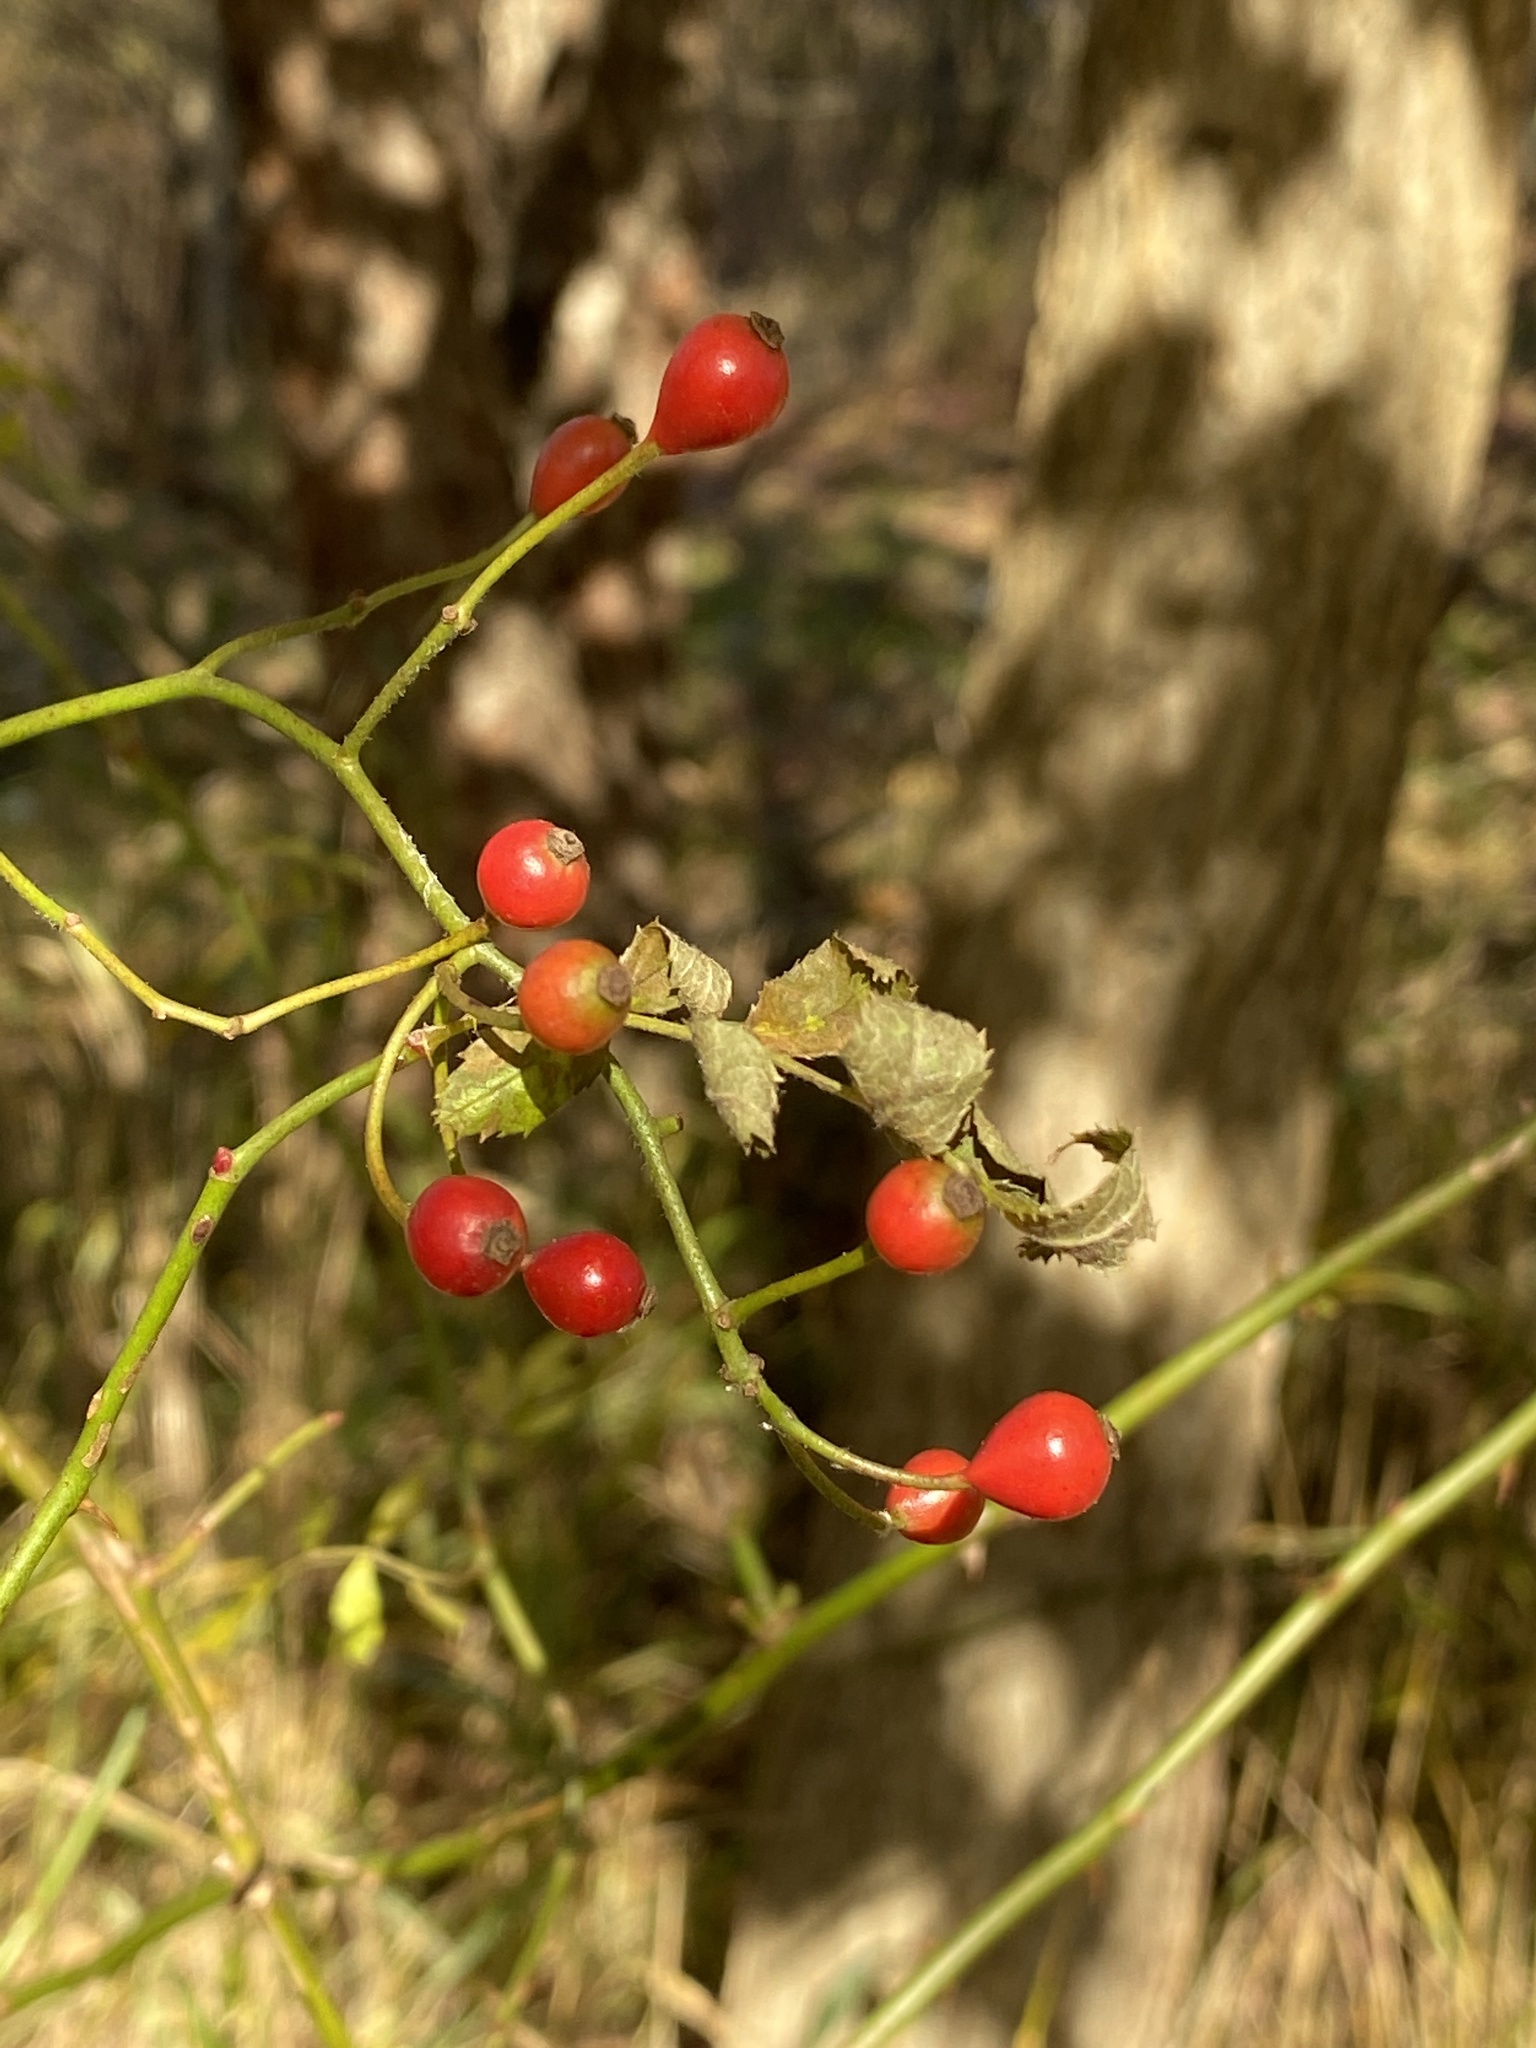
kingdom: Plantae
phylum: Tracheophyta
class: Magnoliopsida
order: Rosales
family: Rosaceae
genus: Rosa
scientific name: Rosa multiflora
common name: Multiflora rose
